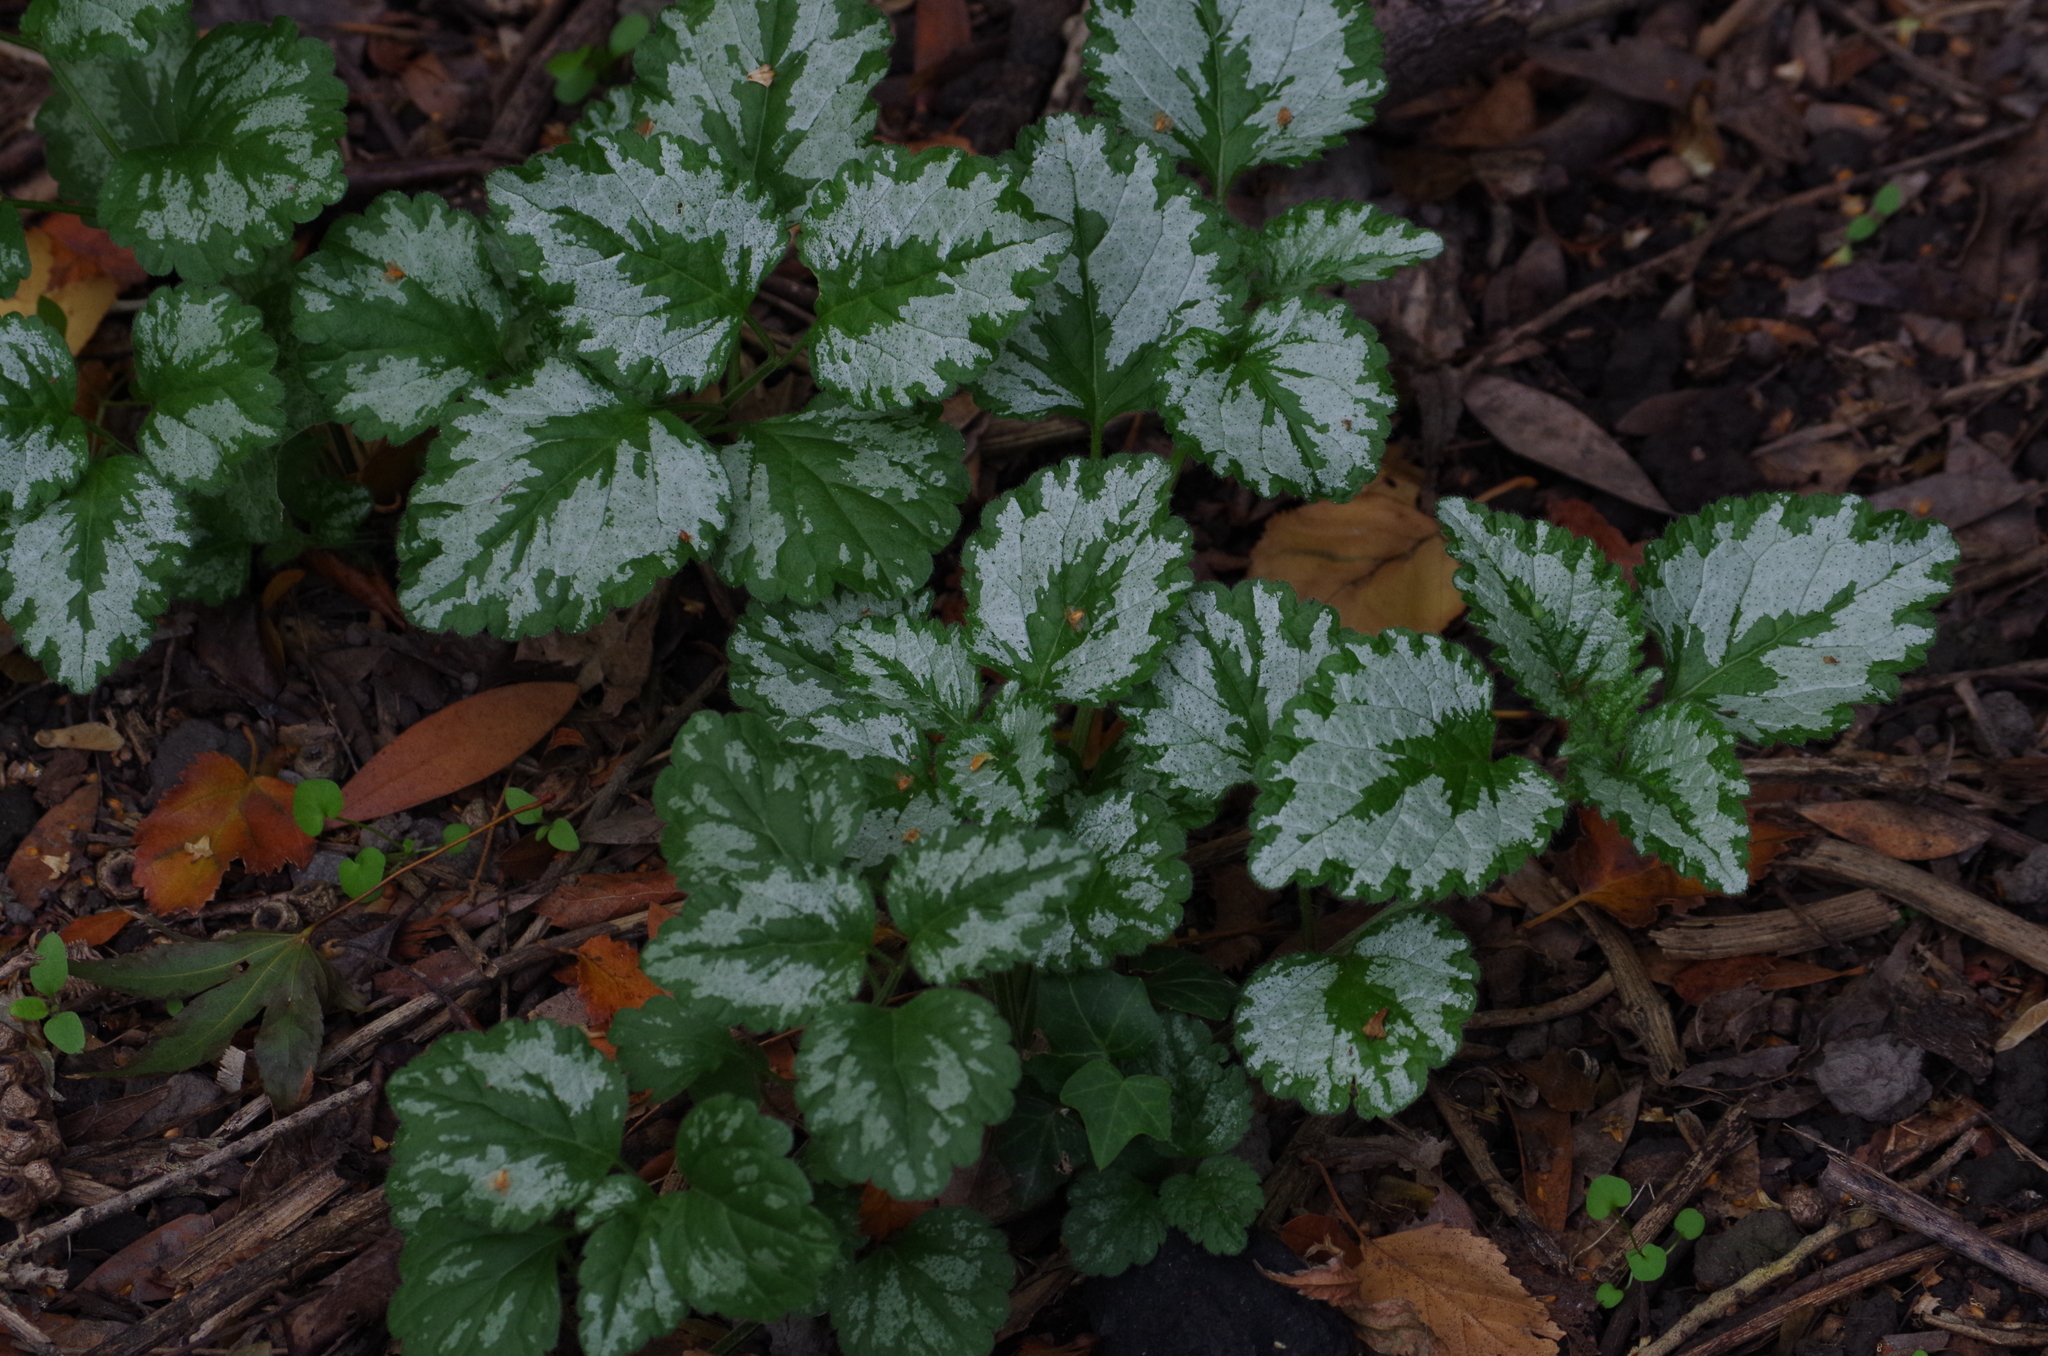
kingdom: Plantae
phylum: Tracheophyta
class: Magnoliopsida
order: Lamiales
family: Lamiaceae
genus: Lamium
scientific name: Lamium galeobdolon
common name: Yellow archangel
